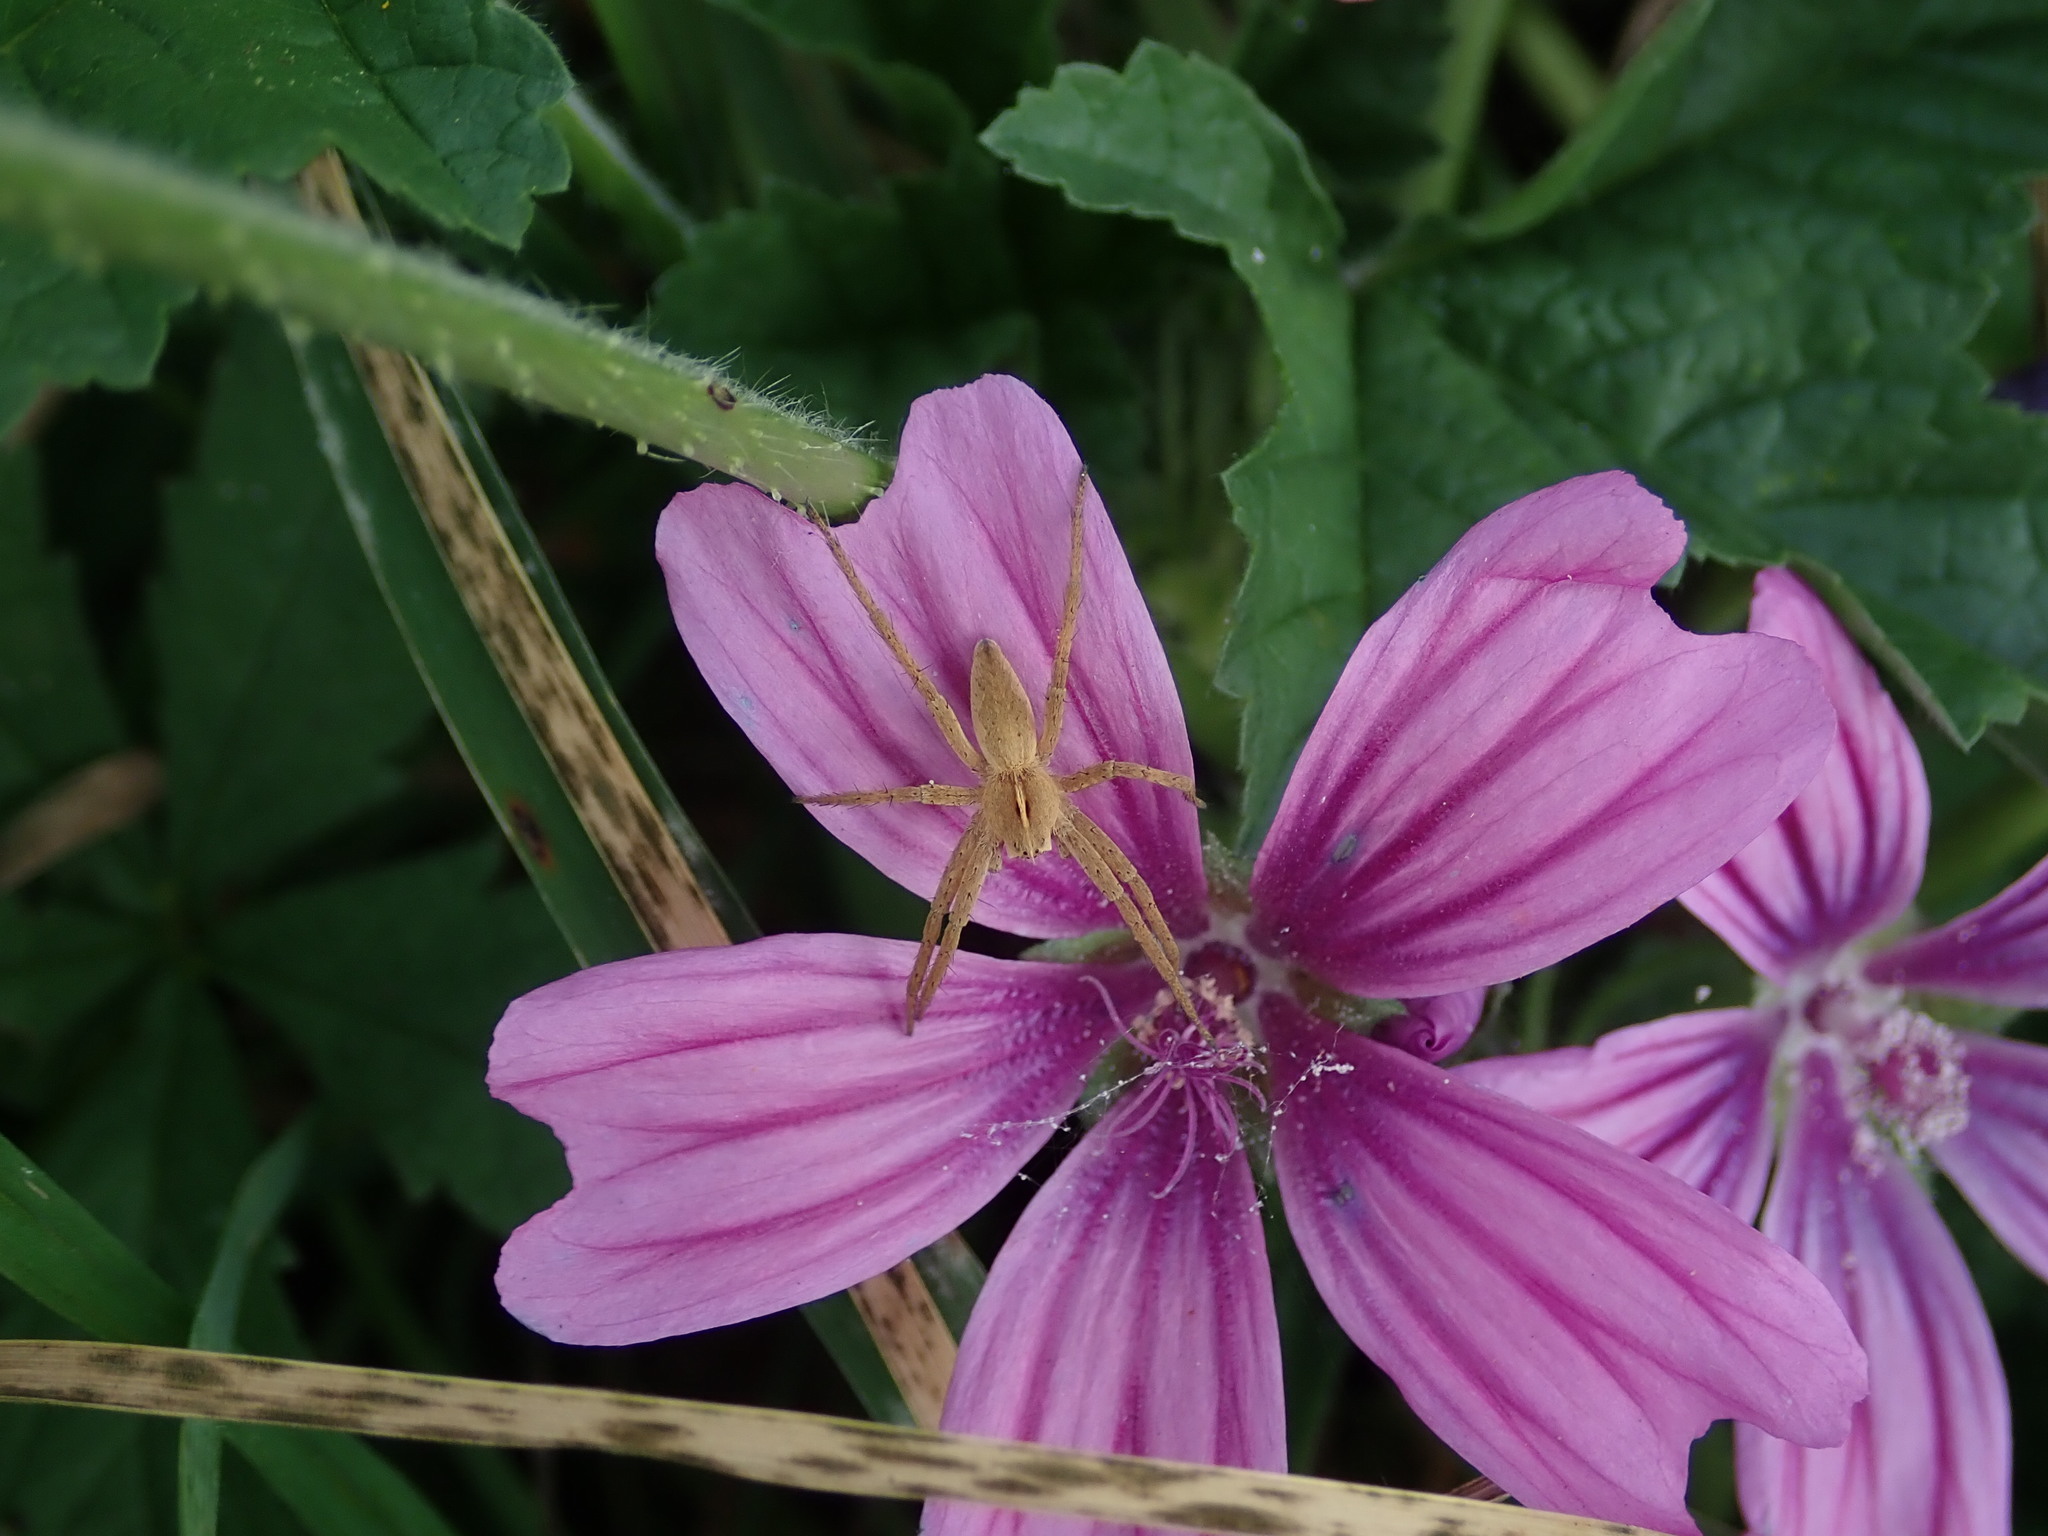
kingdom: Animalia
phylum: Arthropoda
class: Arachnida
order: Araneae
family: Pisauridae
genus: Pisaura
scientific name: Pisaura mirabilis
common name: Tent spider
